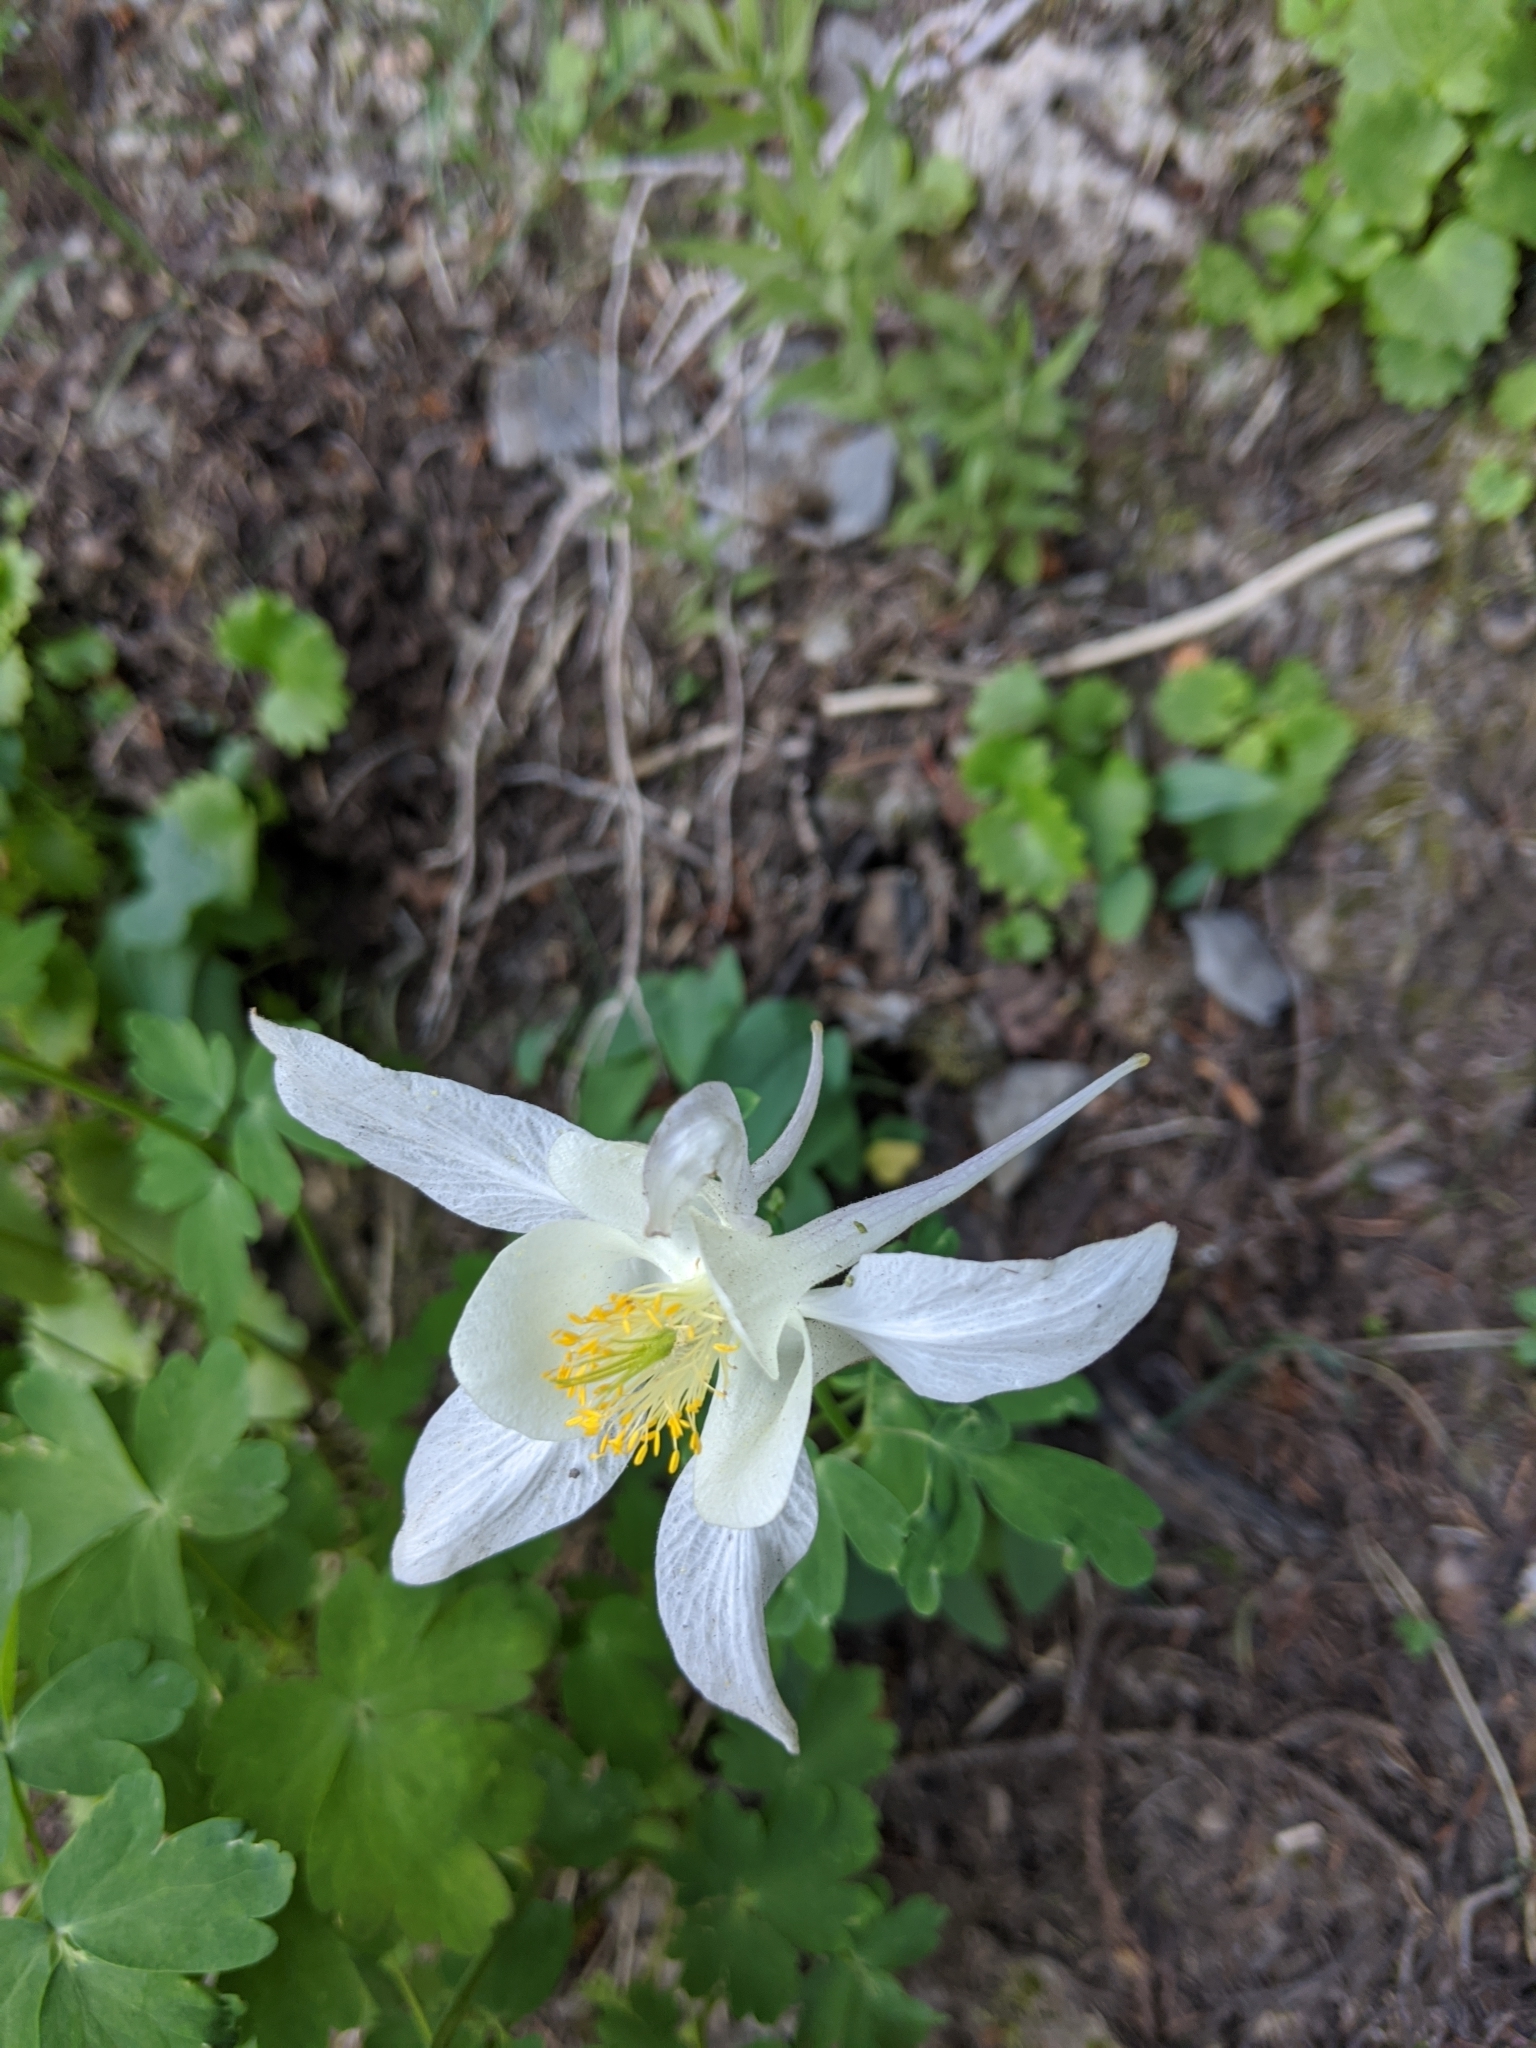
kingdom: Plantae
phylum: Tracheophyta
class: Magnoliopsida
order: Ranunculales
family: Ranunculaceae
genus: Aquilegia
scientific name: Aquilegia coerulea
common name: Rocky mountain columbine
